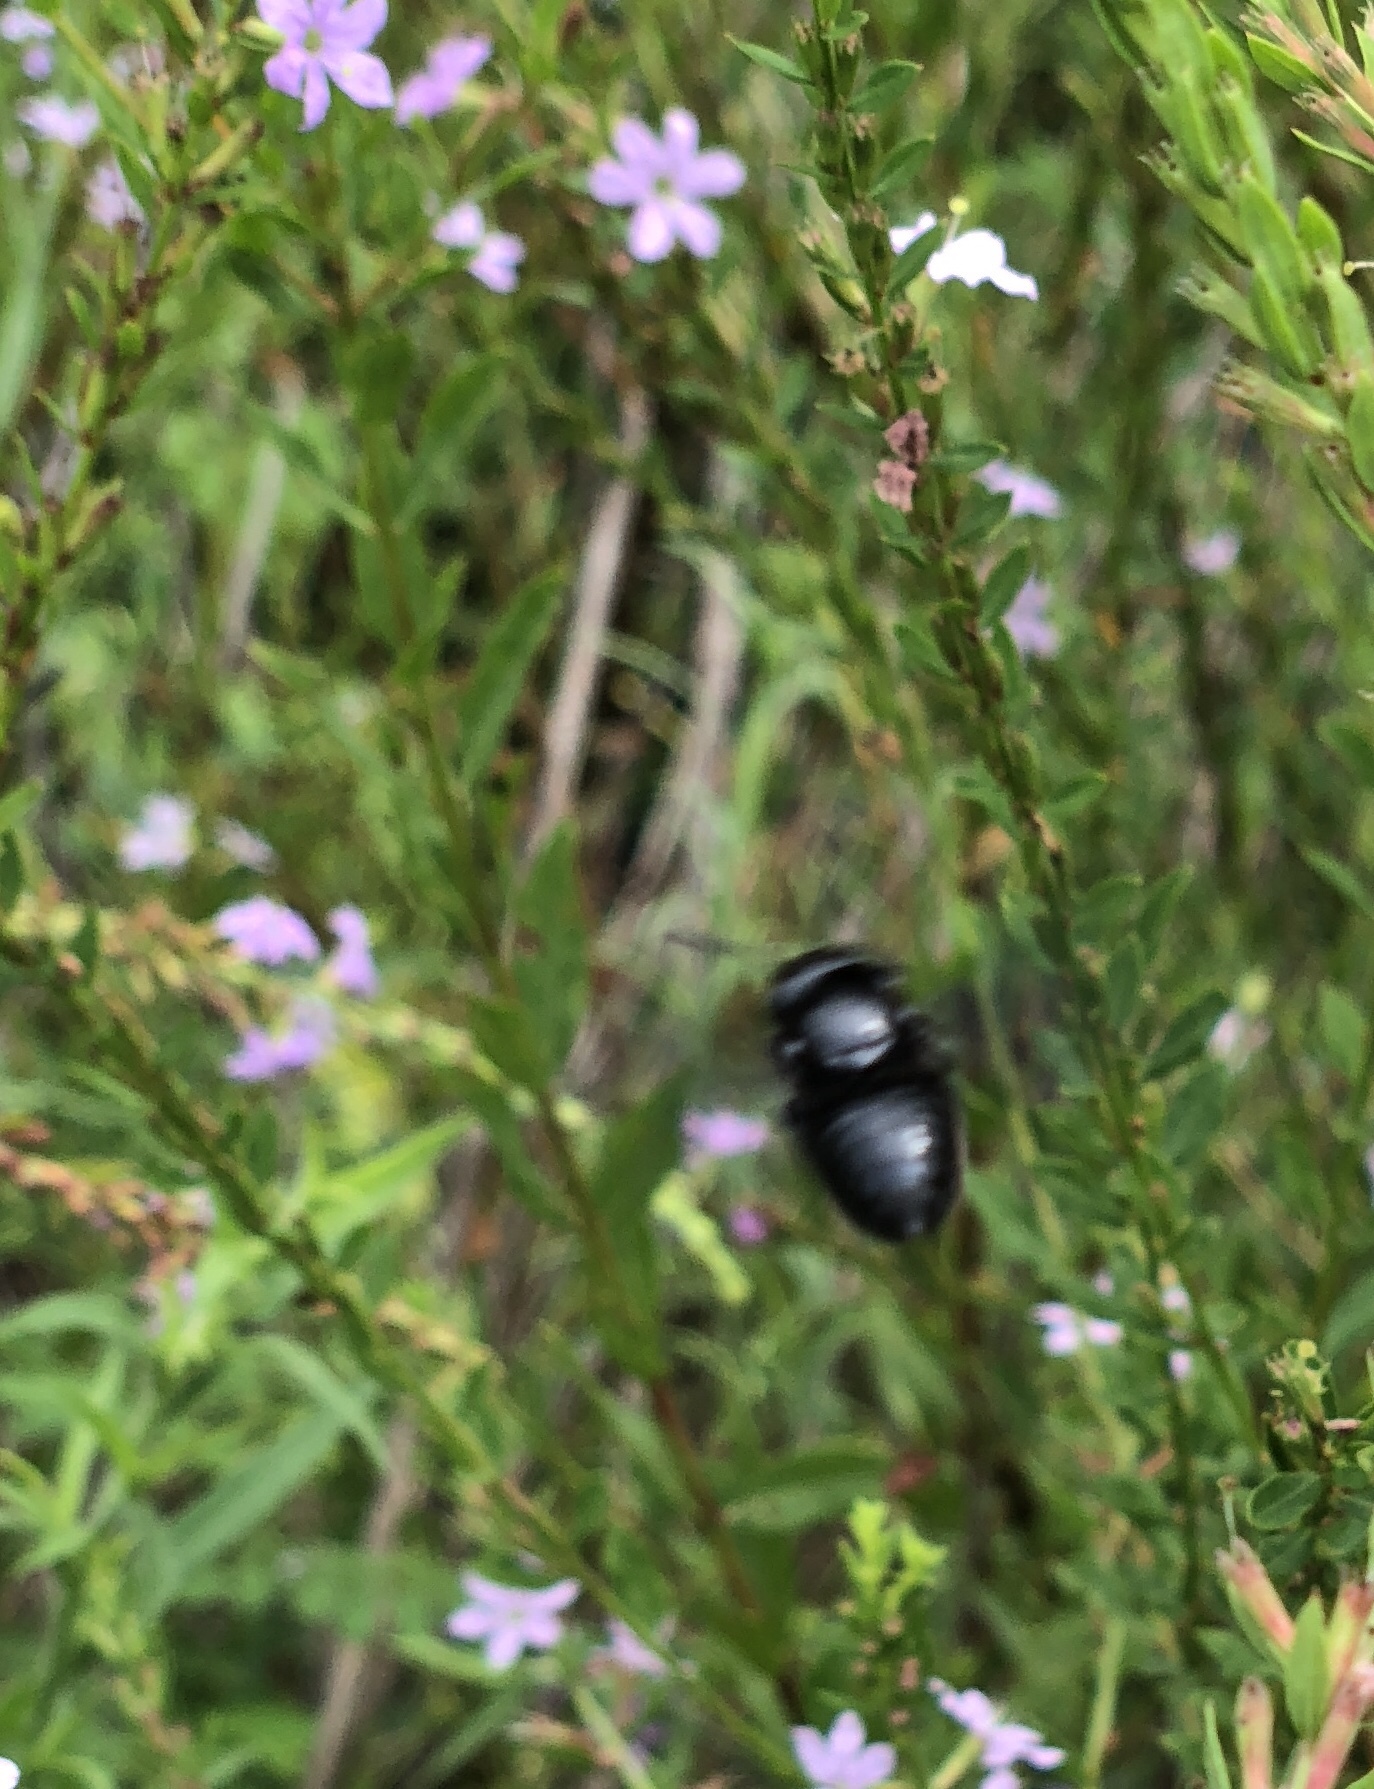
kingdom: Animalia
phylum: Arthropoda
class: Insecta
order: Hymenoptera
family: Megachilidae
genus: Megachile
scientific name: Megachile xylocopoides
